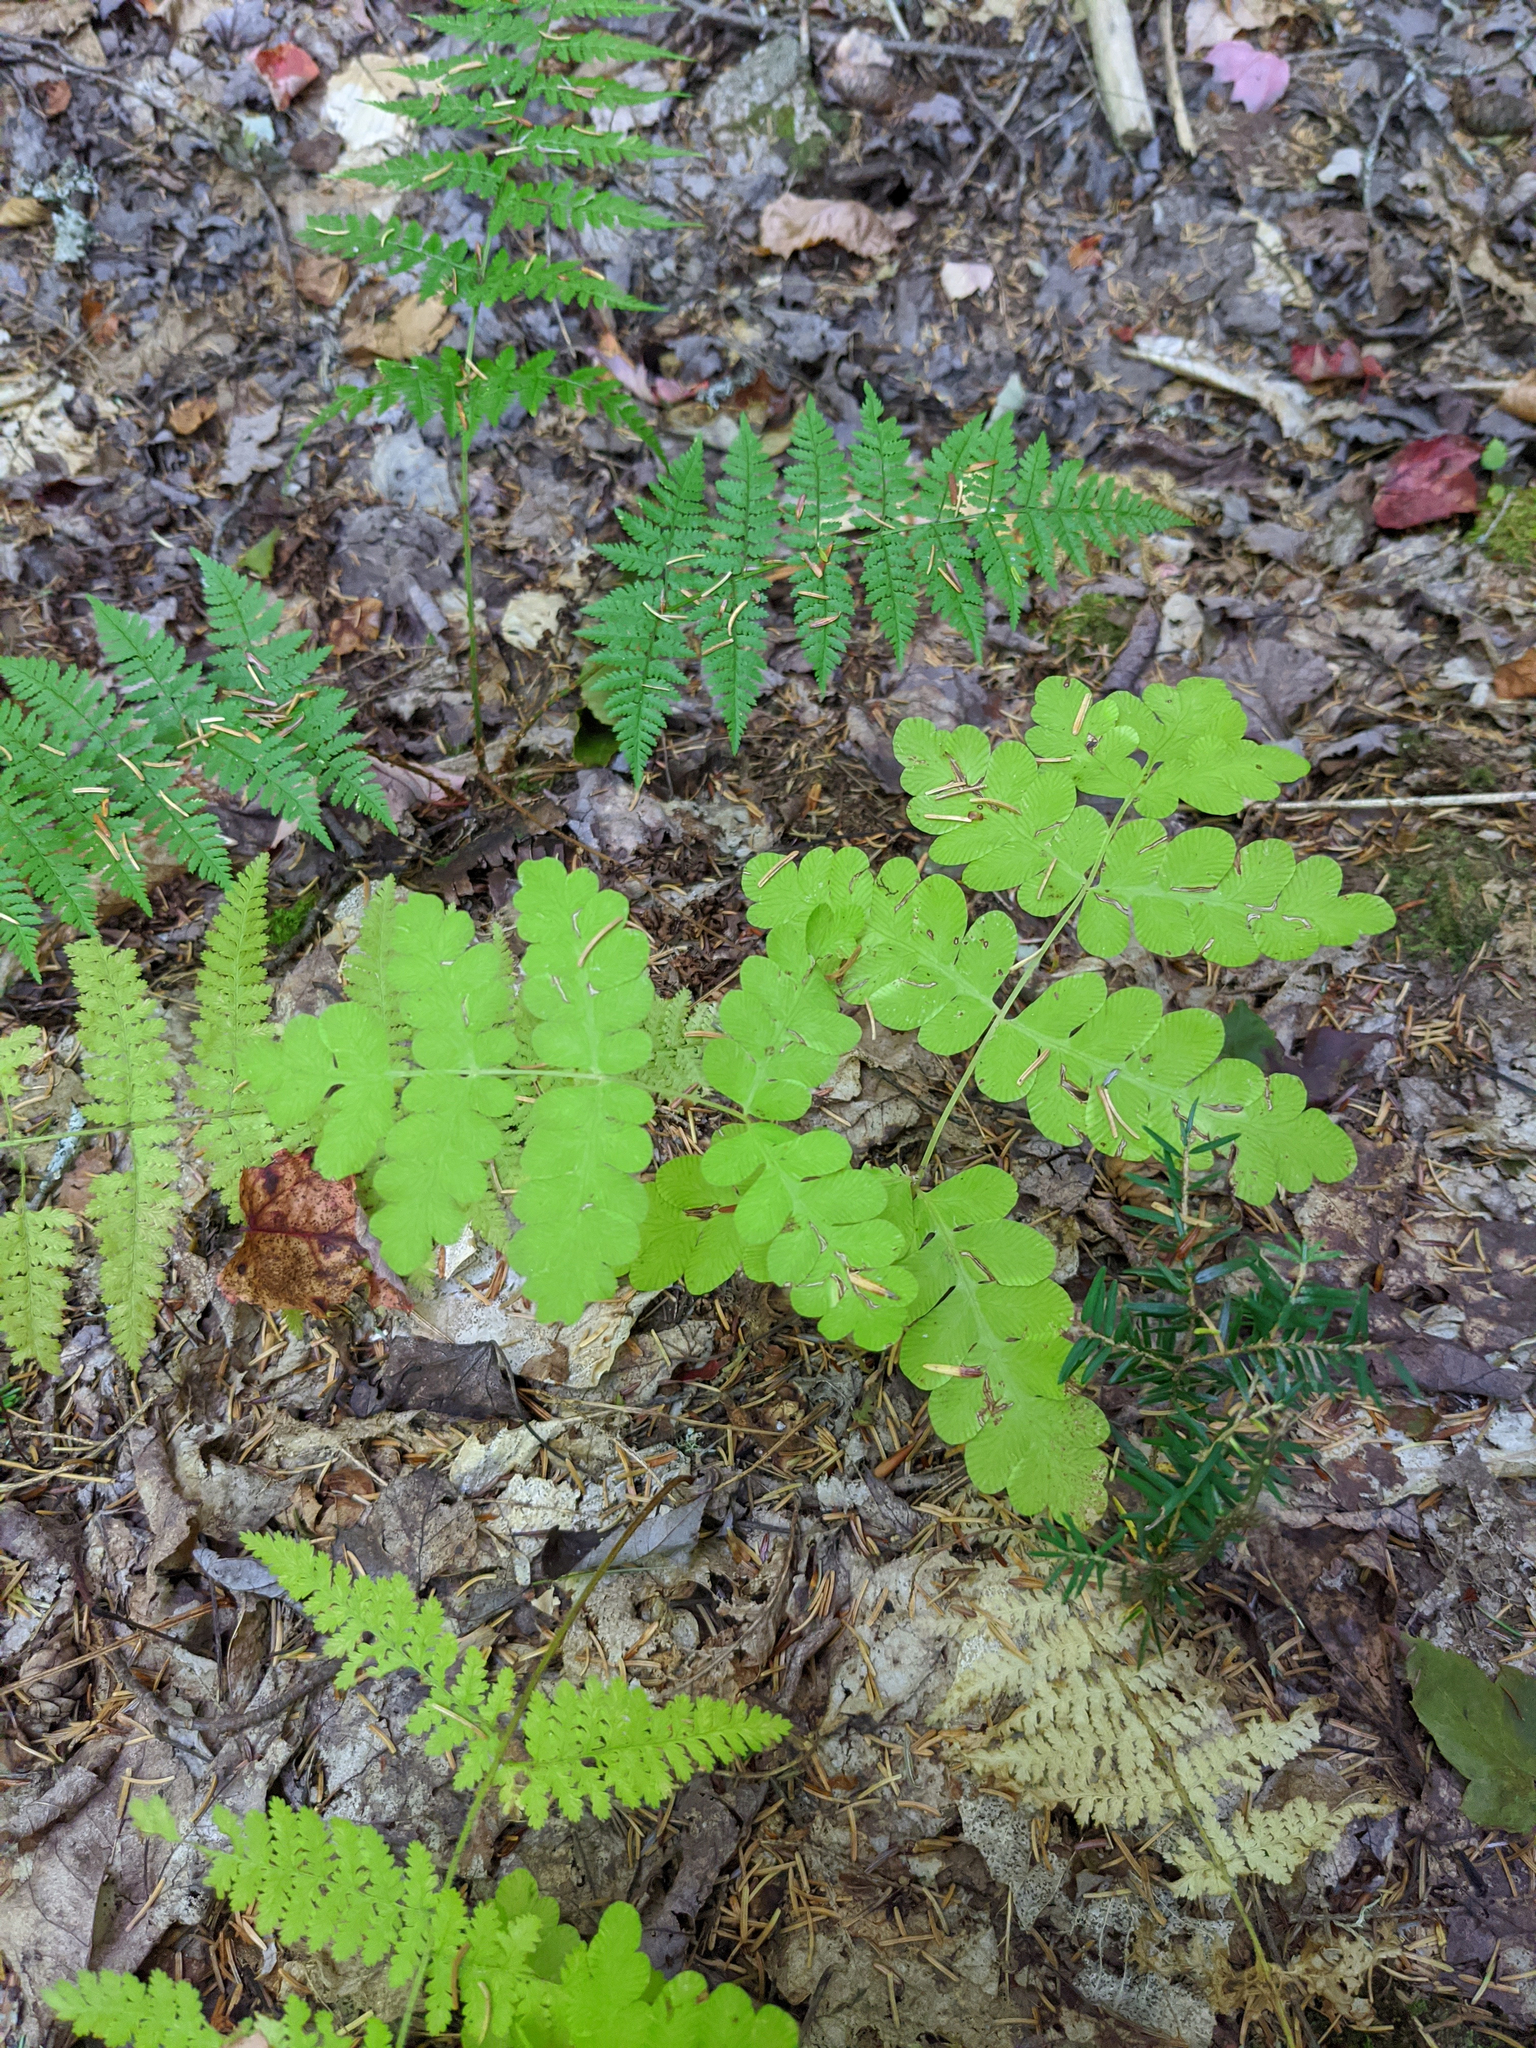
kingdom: Plantae
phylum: Tracheophyta
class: Polypodiopsida
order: Osmundales
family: Osmundaceae
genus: Claytosmunda
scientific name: Claytosmunda claytoniana
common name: Clayton's fern
